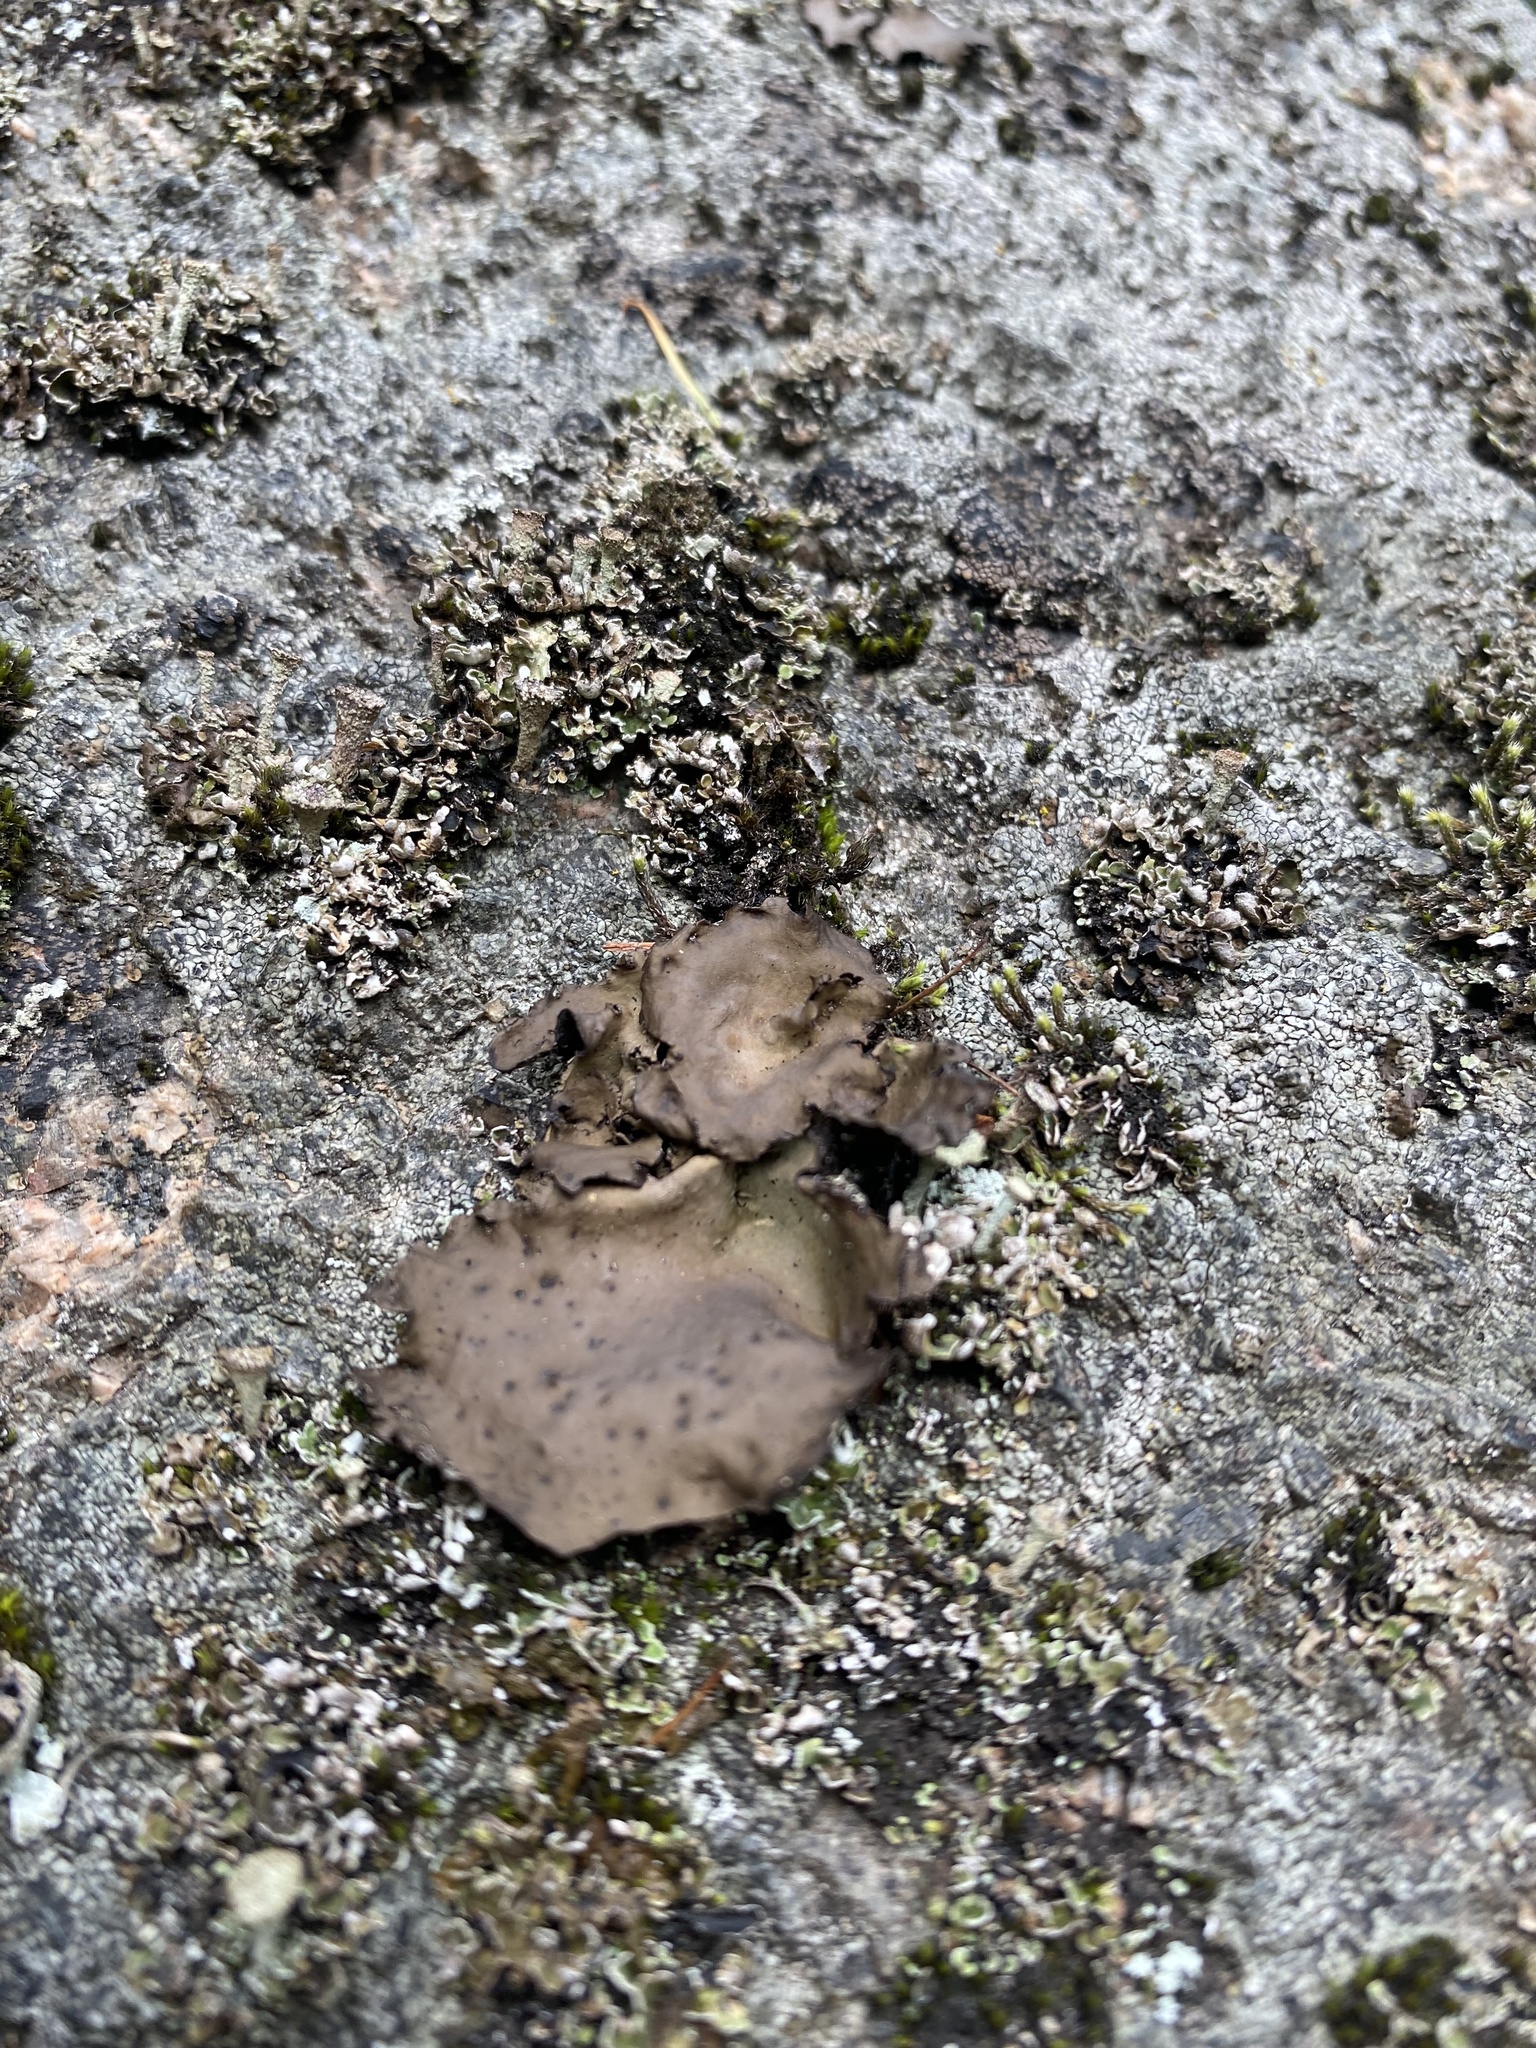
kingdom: Fungi
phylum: Ascomycota
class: Lecanoromycetes
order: Umbilicariales
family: Umbilicariaceae
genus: Umbilicaria
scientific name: Umbilicaria muhlenbergii
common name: Lesser rocktripe
